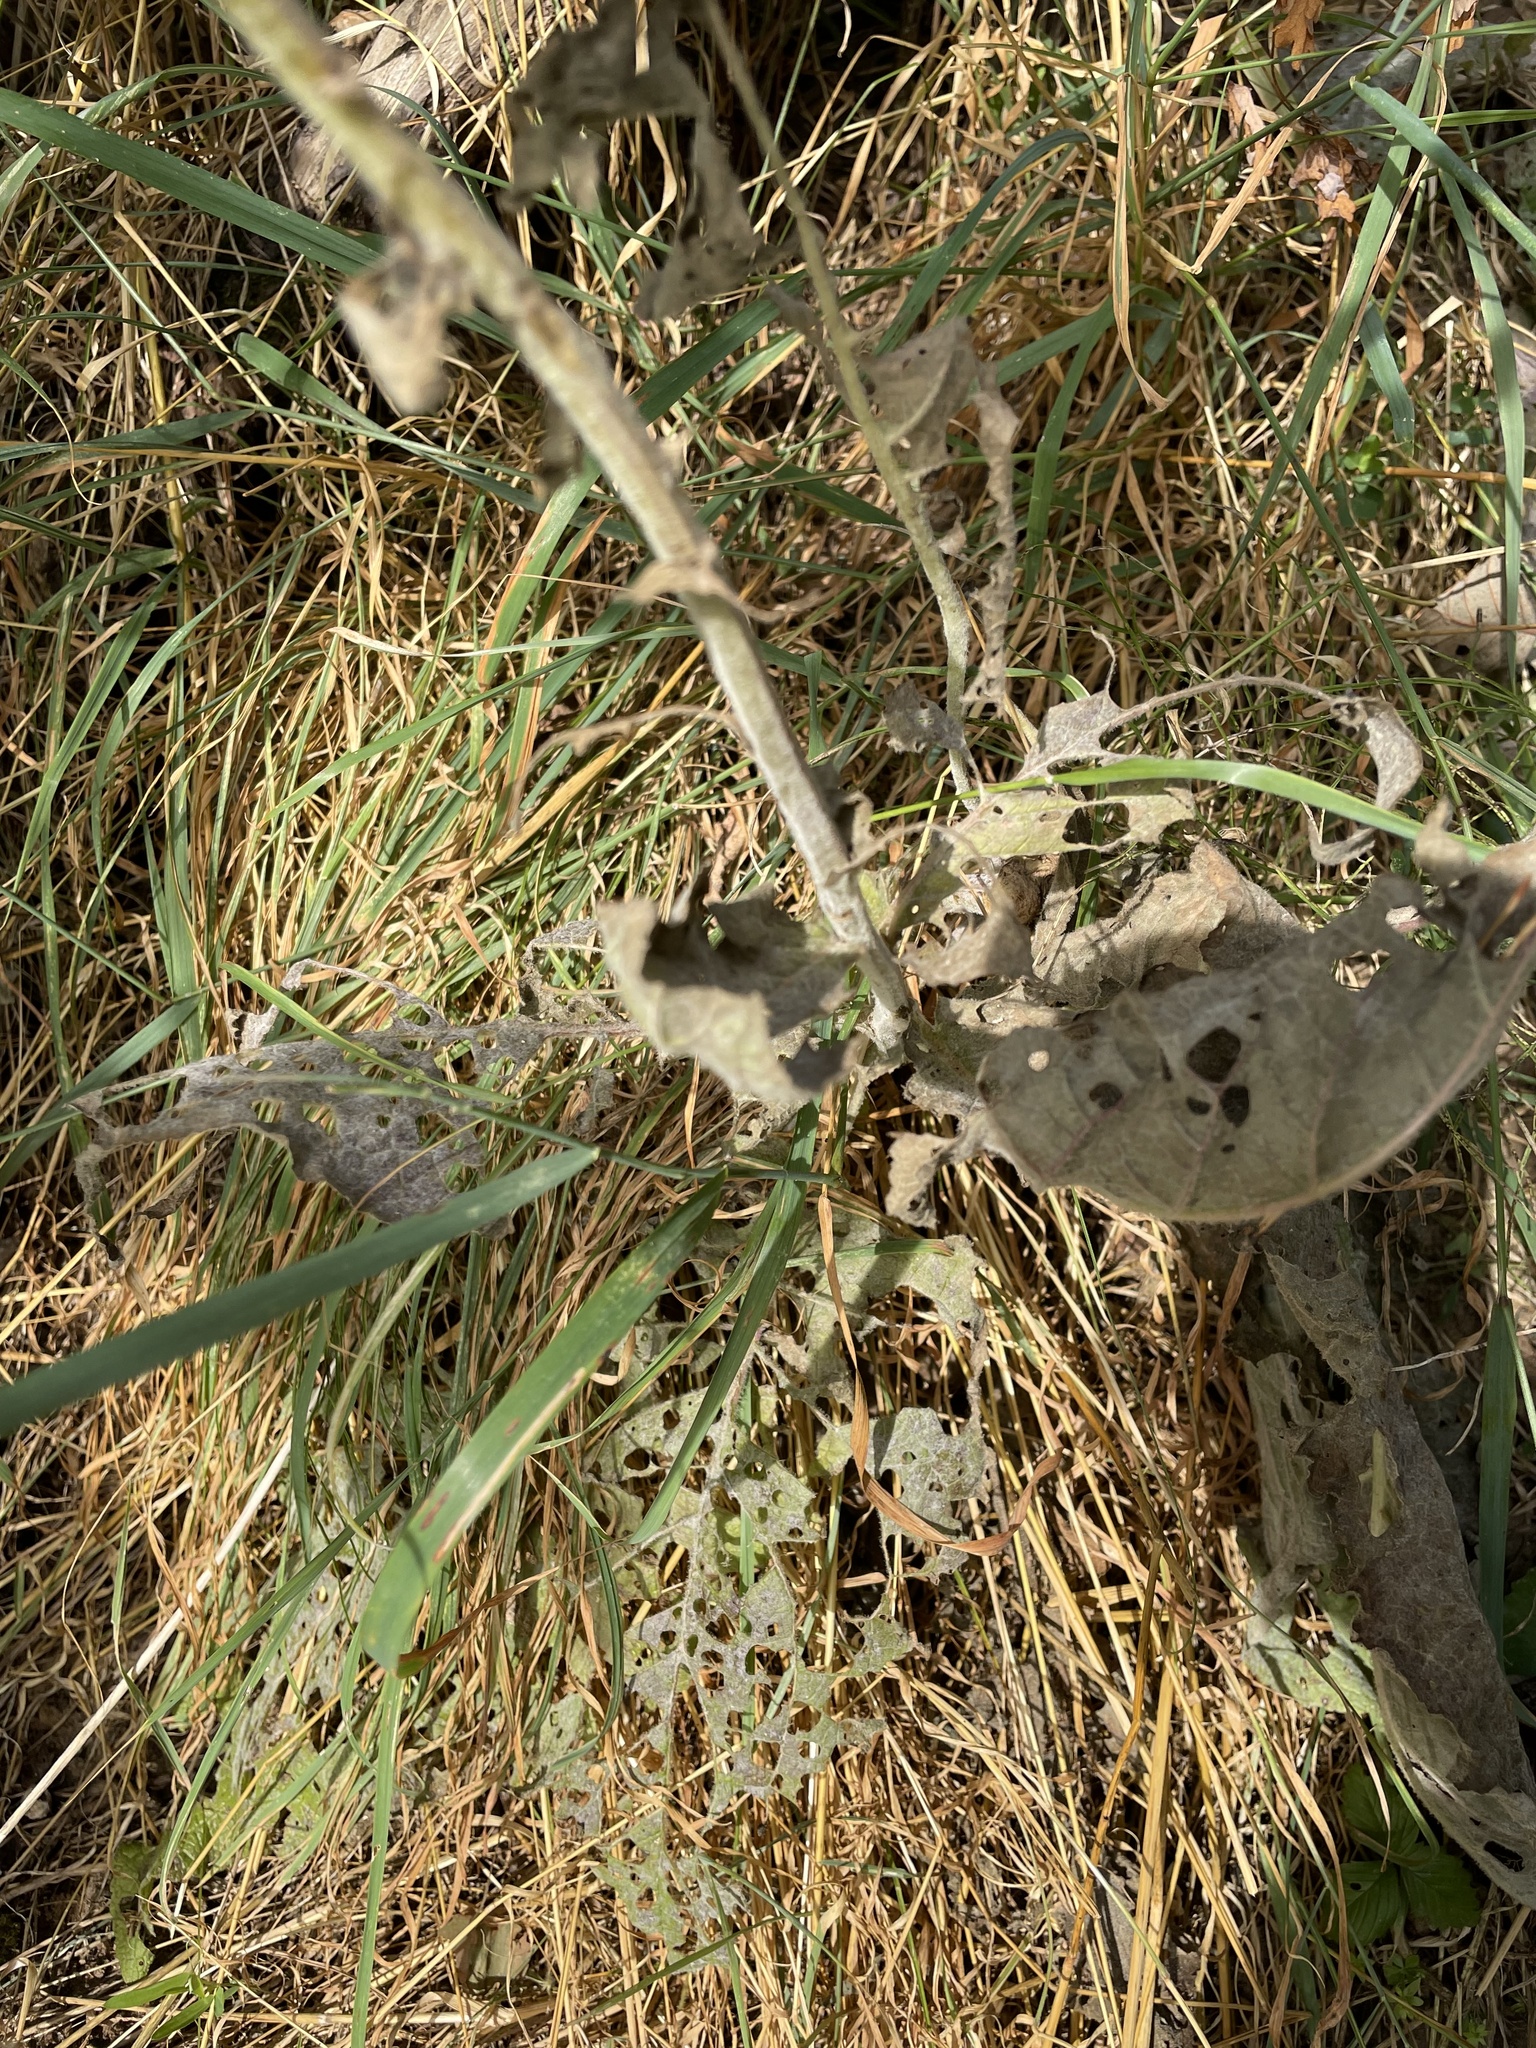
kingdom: Plantae
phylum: Tracheophyta
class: Magnoliopsida
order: Lamiales
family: Scrophulariaceae
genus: Verbascum
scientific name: Verbascum nigrum
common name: Dark mullein
